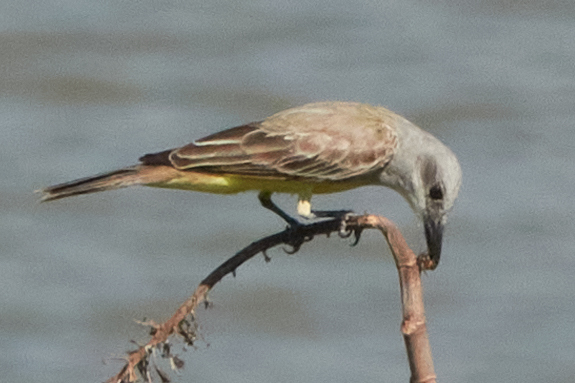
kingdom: Animalia
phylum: Chordata
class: Aves
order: Passeriformes
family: Tyrannidae
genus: Tyrannus
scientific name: Tyrannus melancholicus
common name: Tropical kingbird
